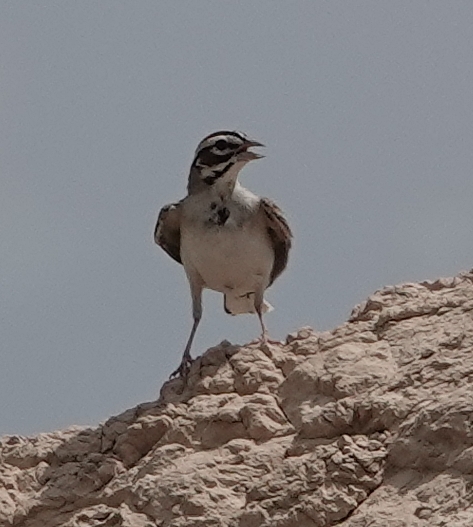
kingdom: Animalia
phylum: Chordata
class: Aves
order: Passeriformes
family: Passerellidae
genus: Chondestes
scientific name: Chondestes grammacus
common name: Lark sparrow
